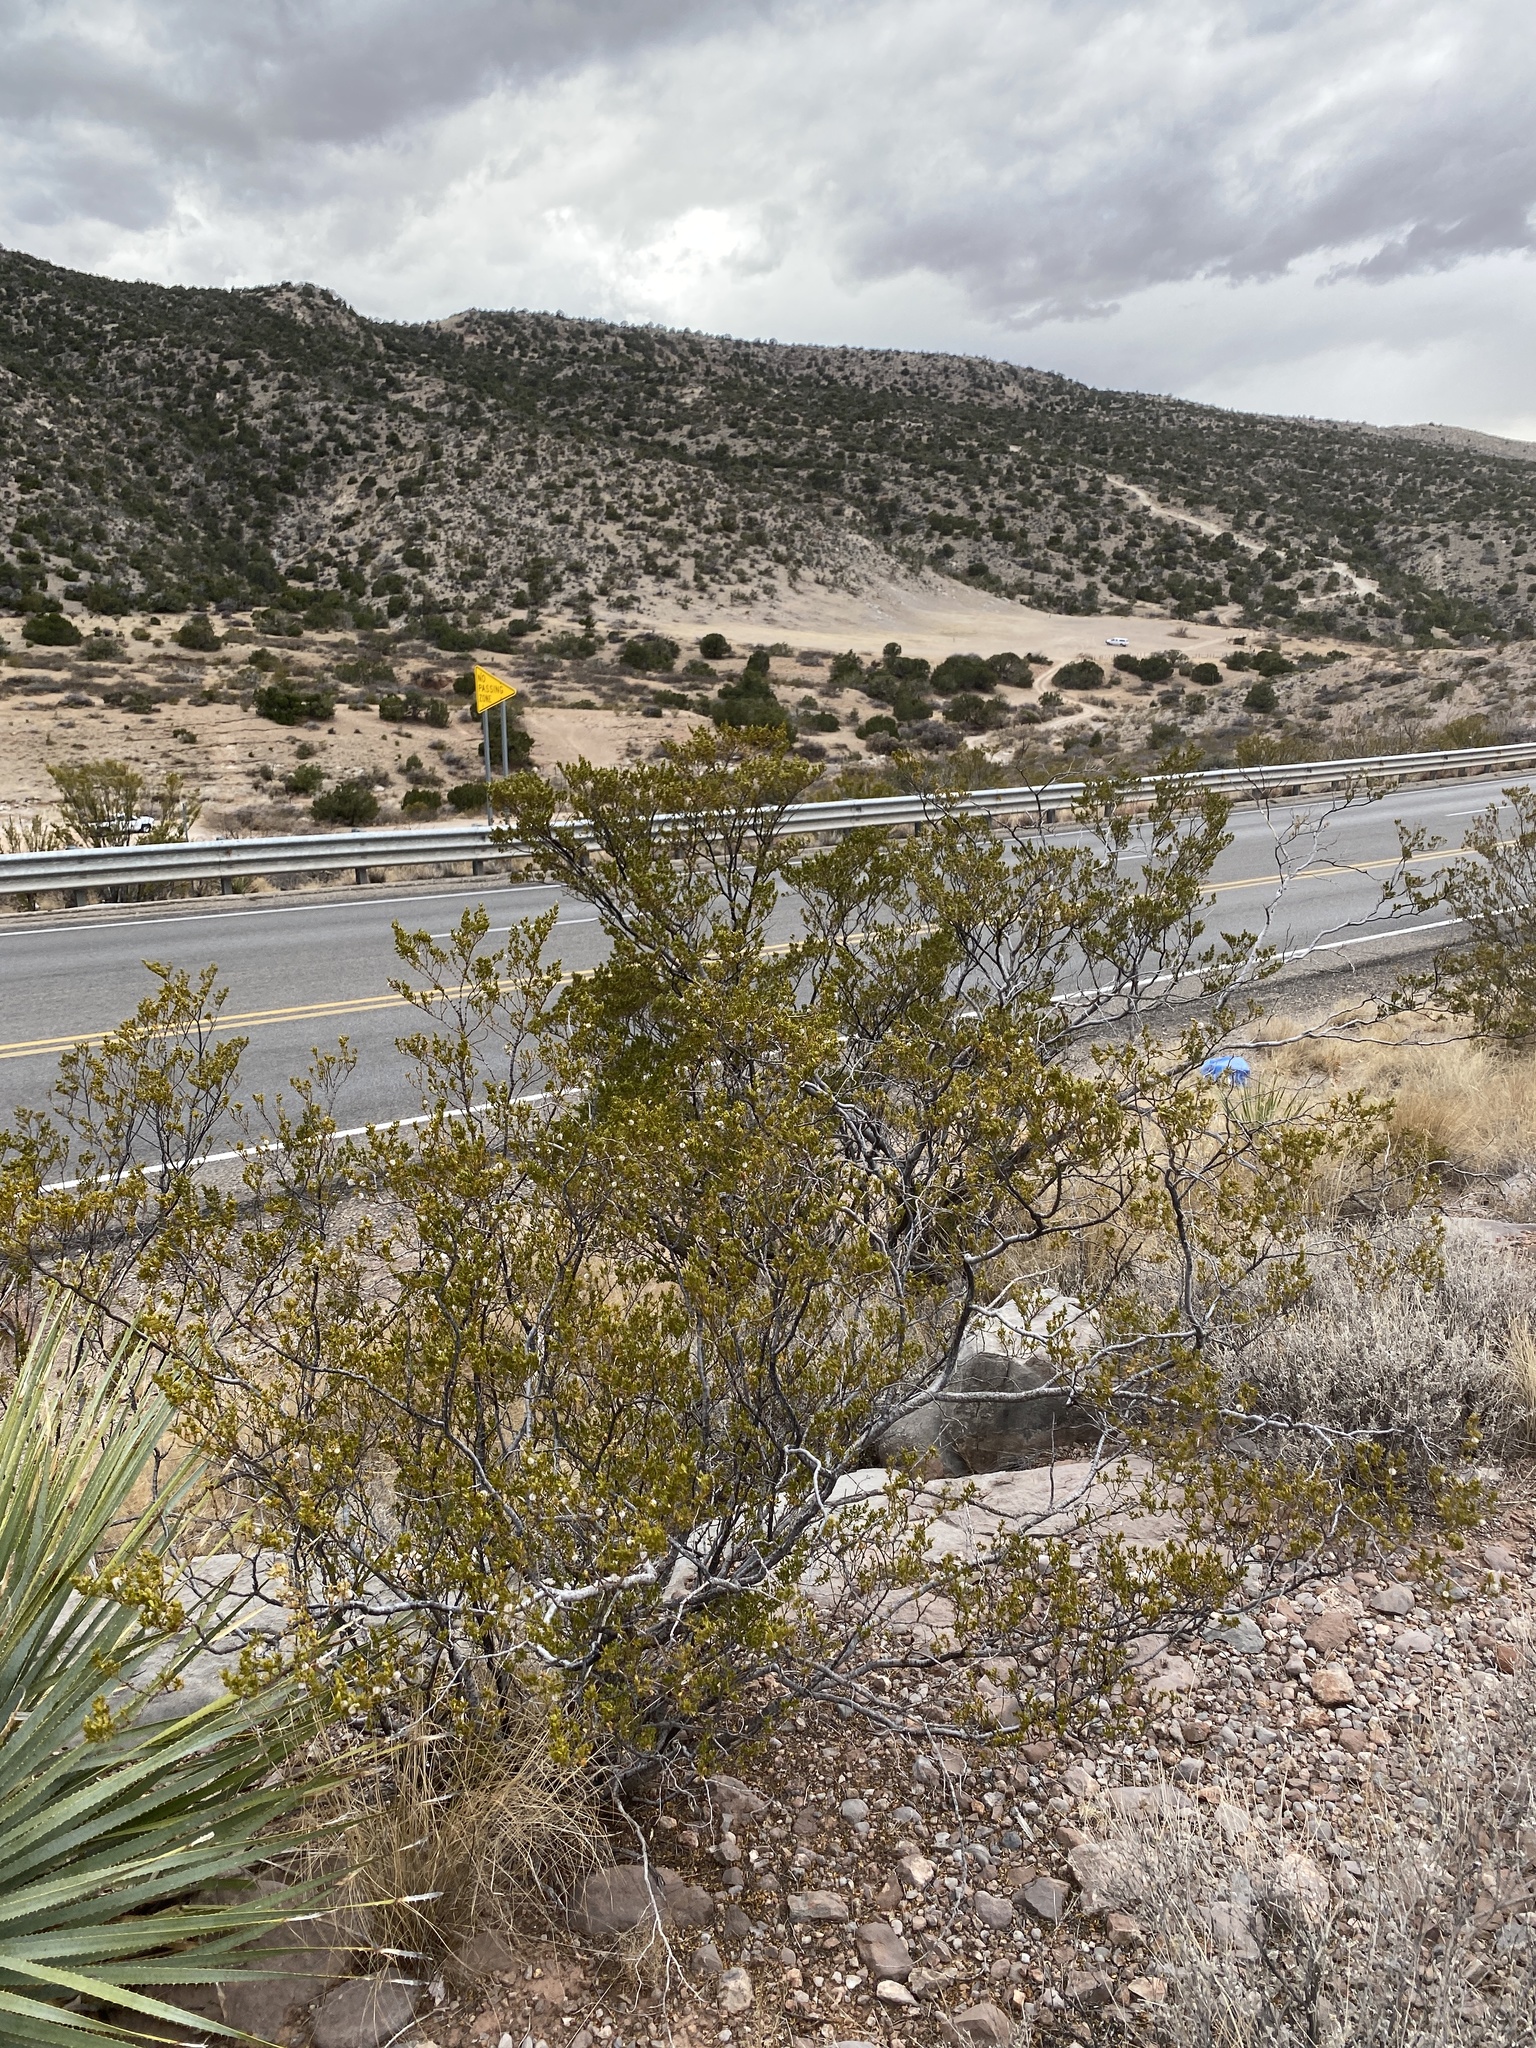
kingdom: Plantae
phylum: Tracheophyta
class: Magnoliopsida
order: Zygophyllales
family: Zygophyllaceae
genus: Larrea
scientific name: Larrea tridentata
